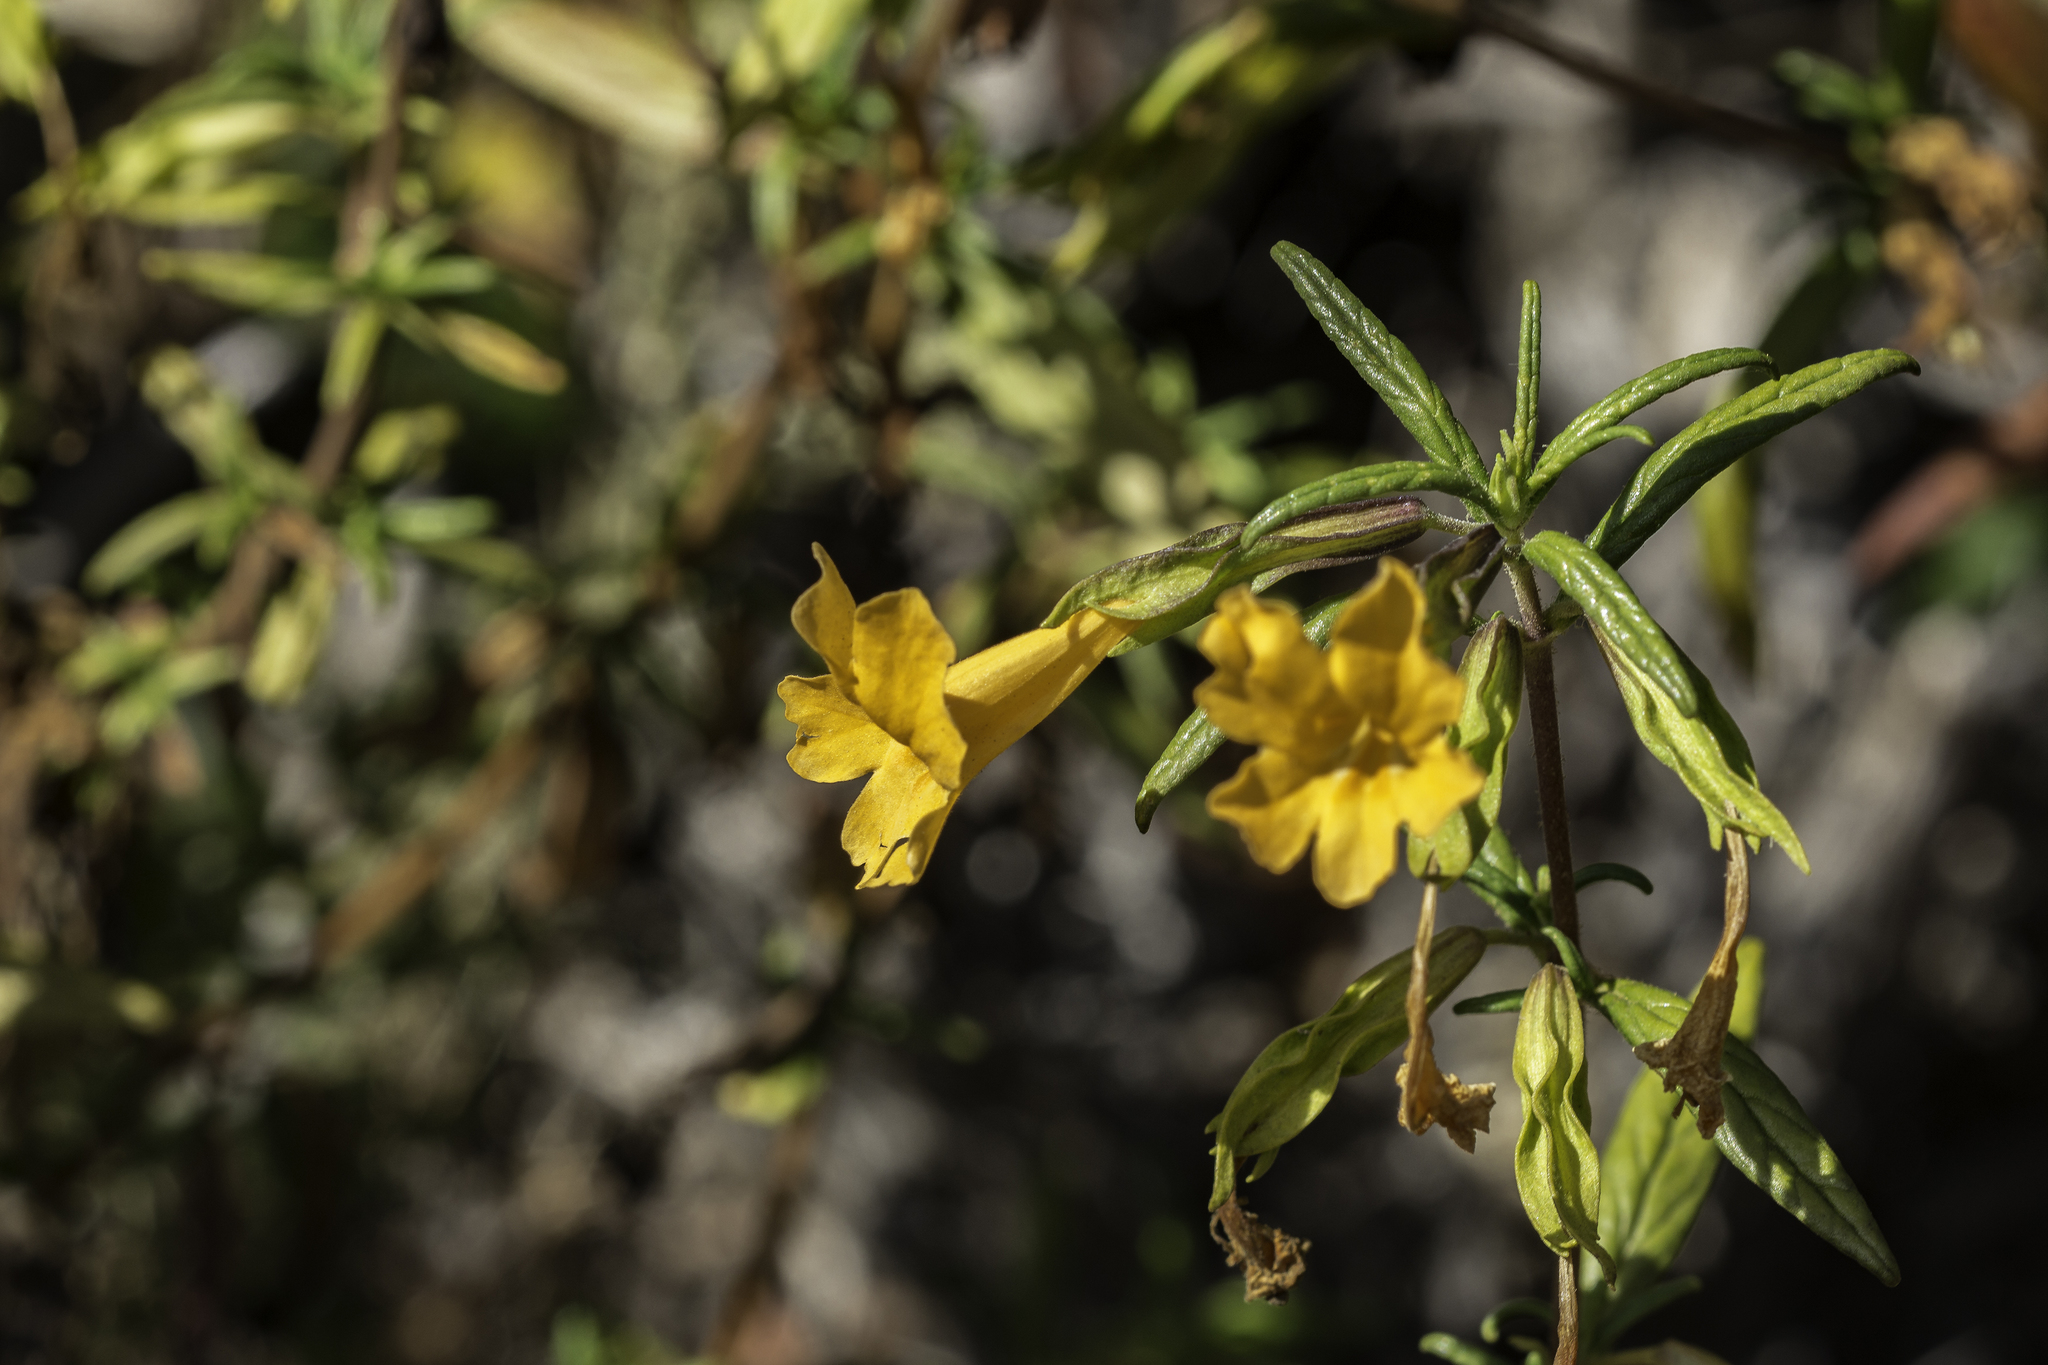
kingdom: Plantae
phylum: Tracheophyta
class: Magnoliopsida
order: Lamiales
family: Phrymaceae
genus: Diplacus
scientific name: Diplacus aurantiacus
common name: Bush monkey-flower
